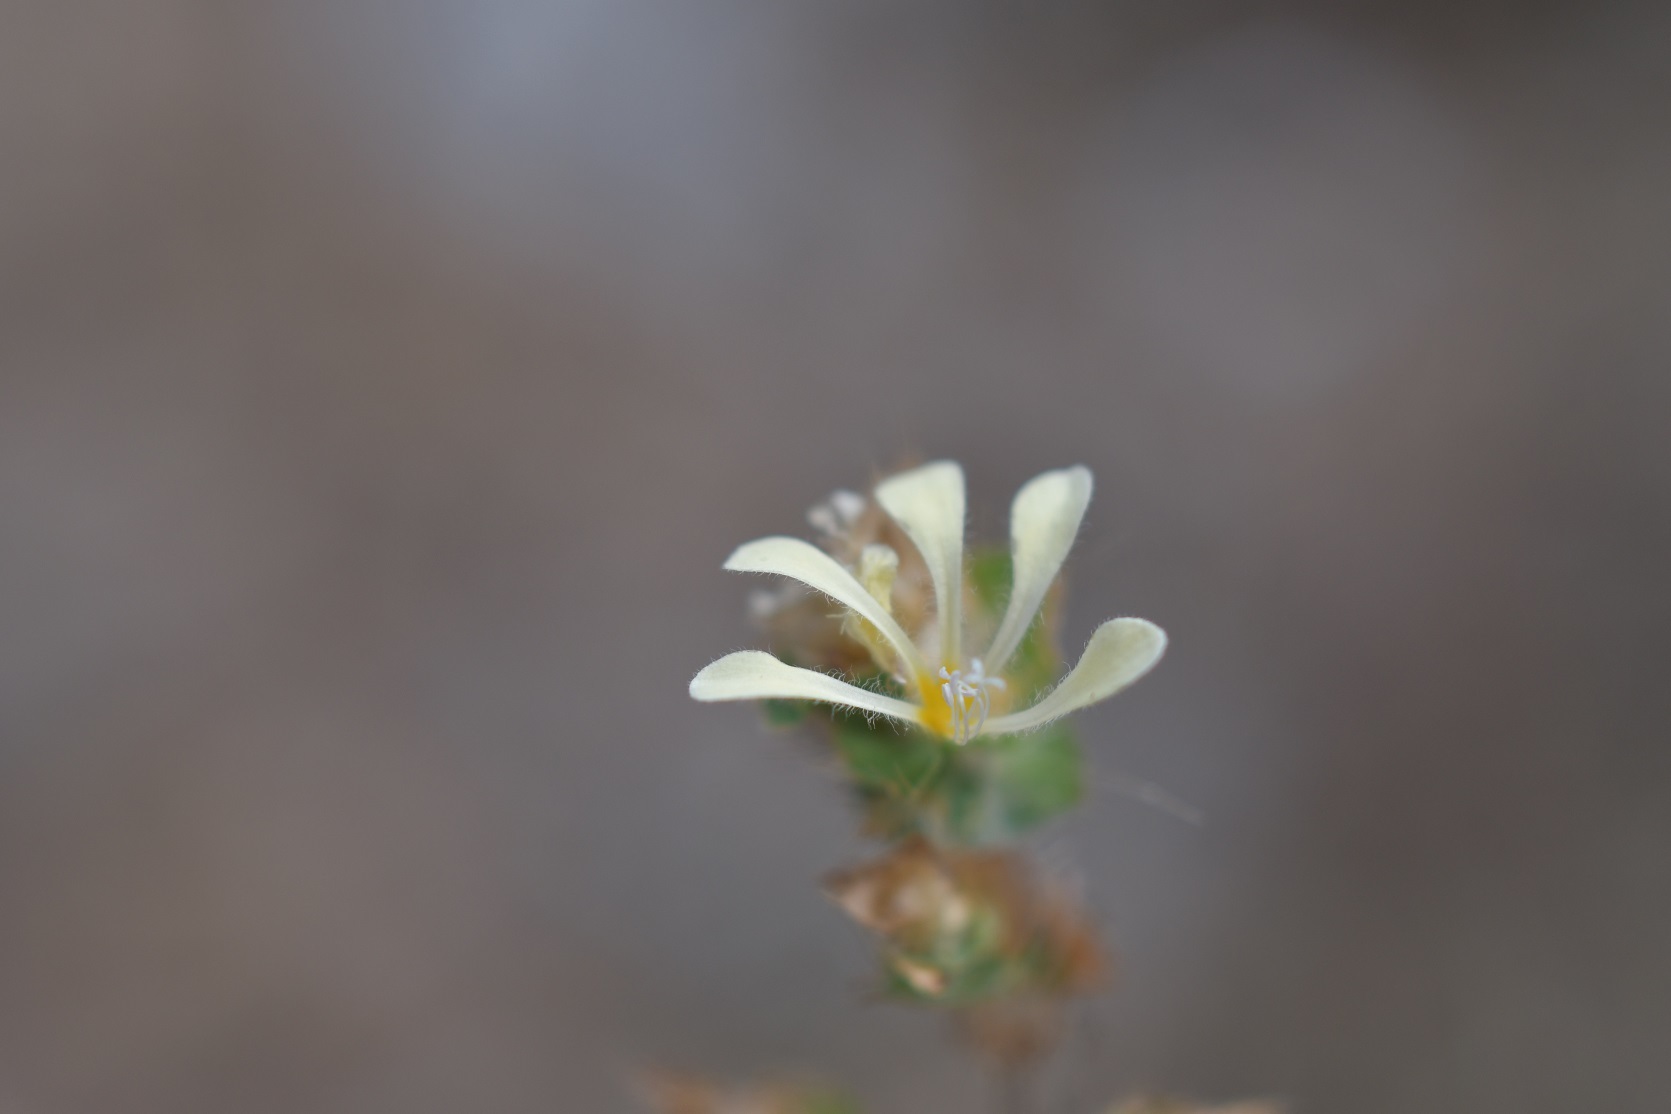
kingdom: Plantae
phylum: Tracheophyta
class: Magnoliopsida
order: Ericales
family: Polemoniaceae
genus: Loeselia
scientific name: Loeselia ciliata
